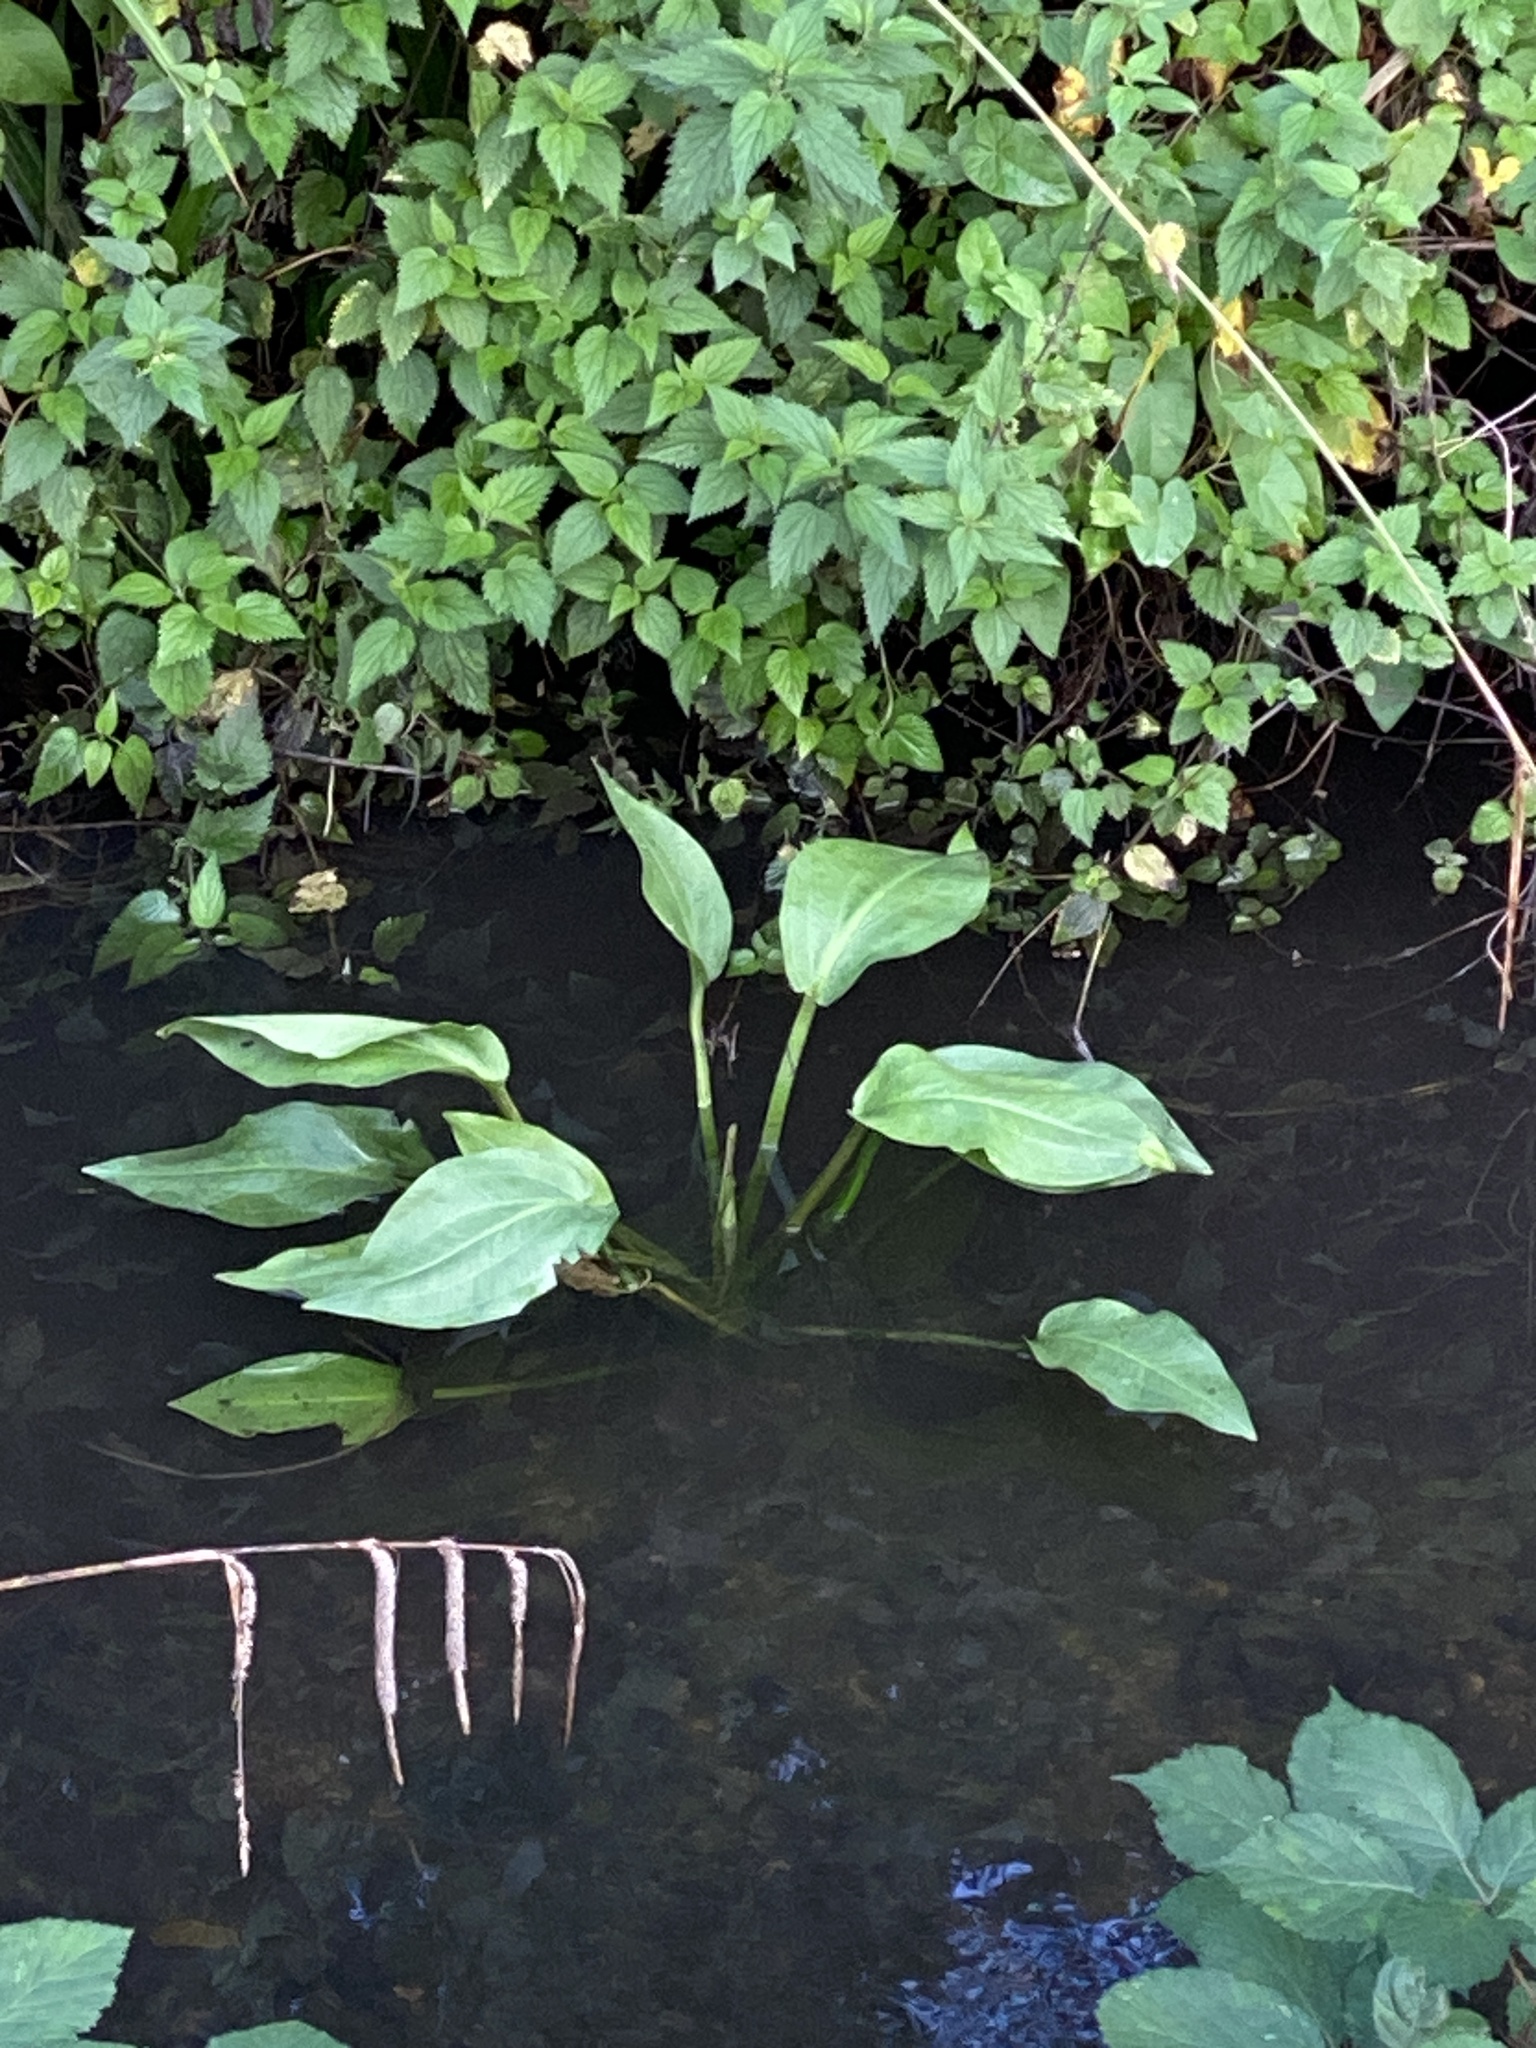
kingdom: Plantae
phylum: Tracheophyta
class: Liliopsida
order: Alismatales
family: Alismataceae
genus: Alisma
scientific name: Alisma plantago-aquatica
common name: Water-plantain
